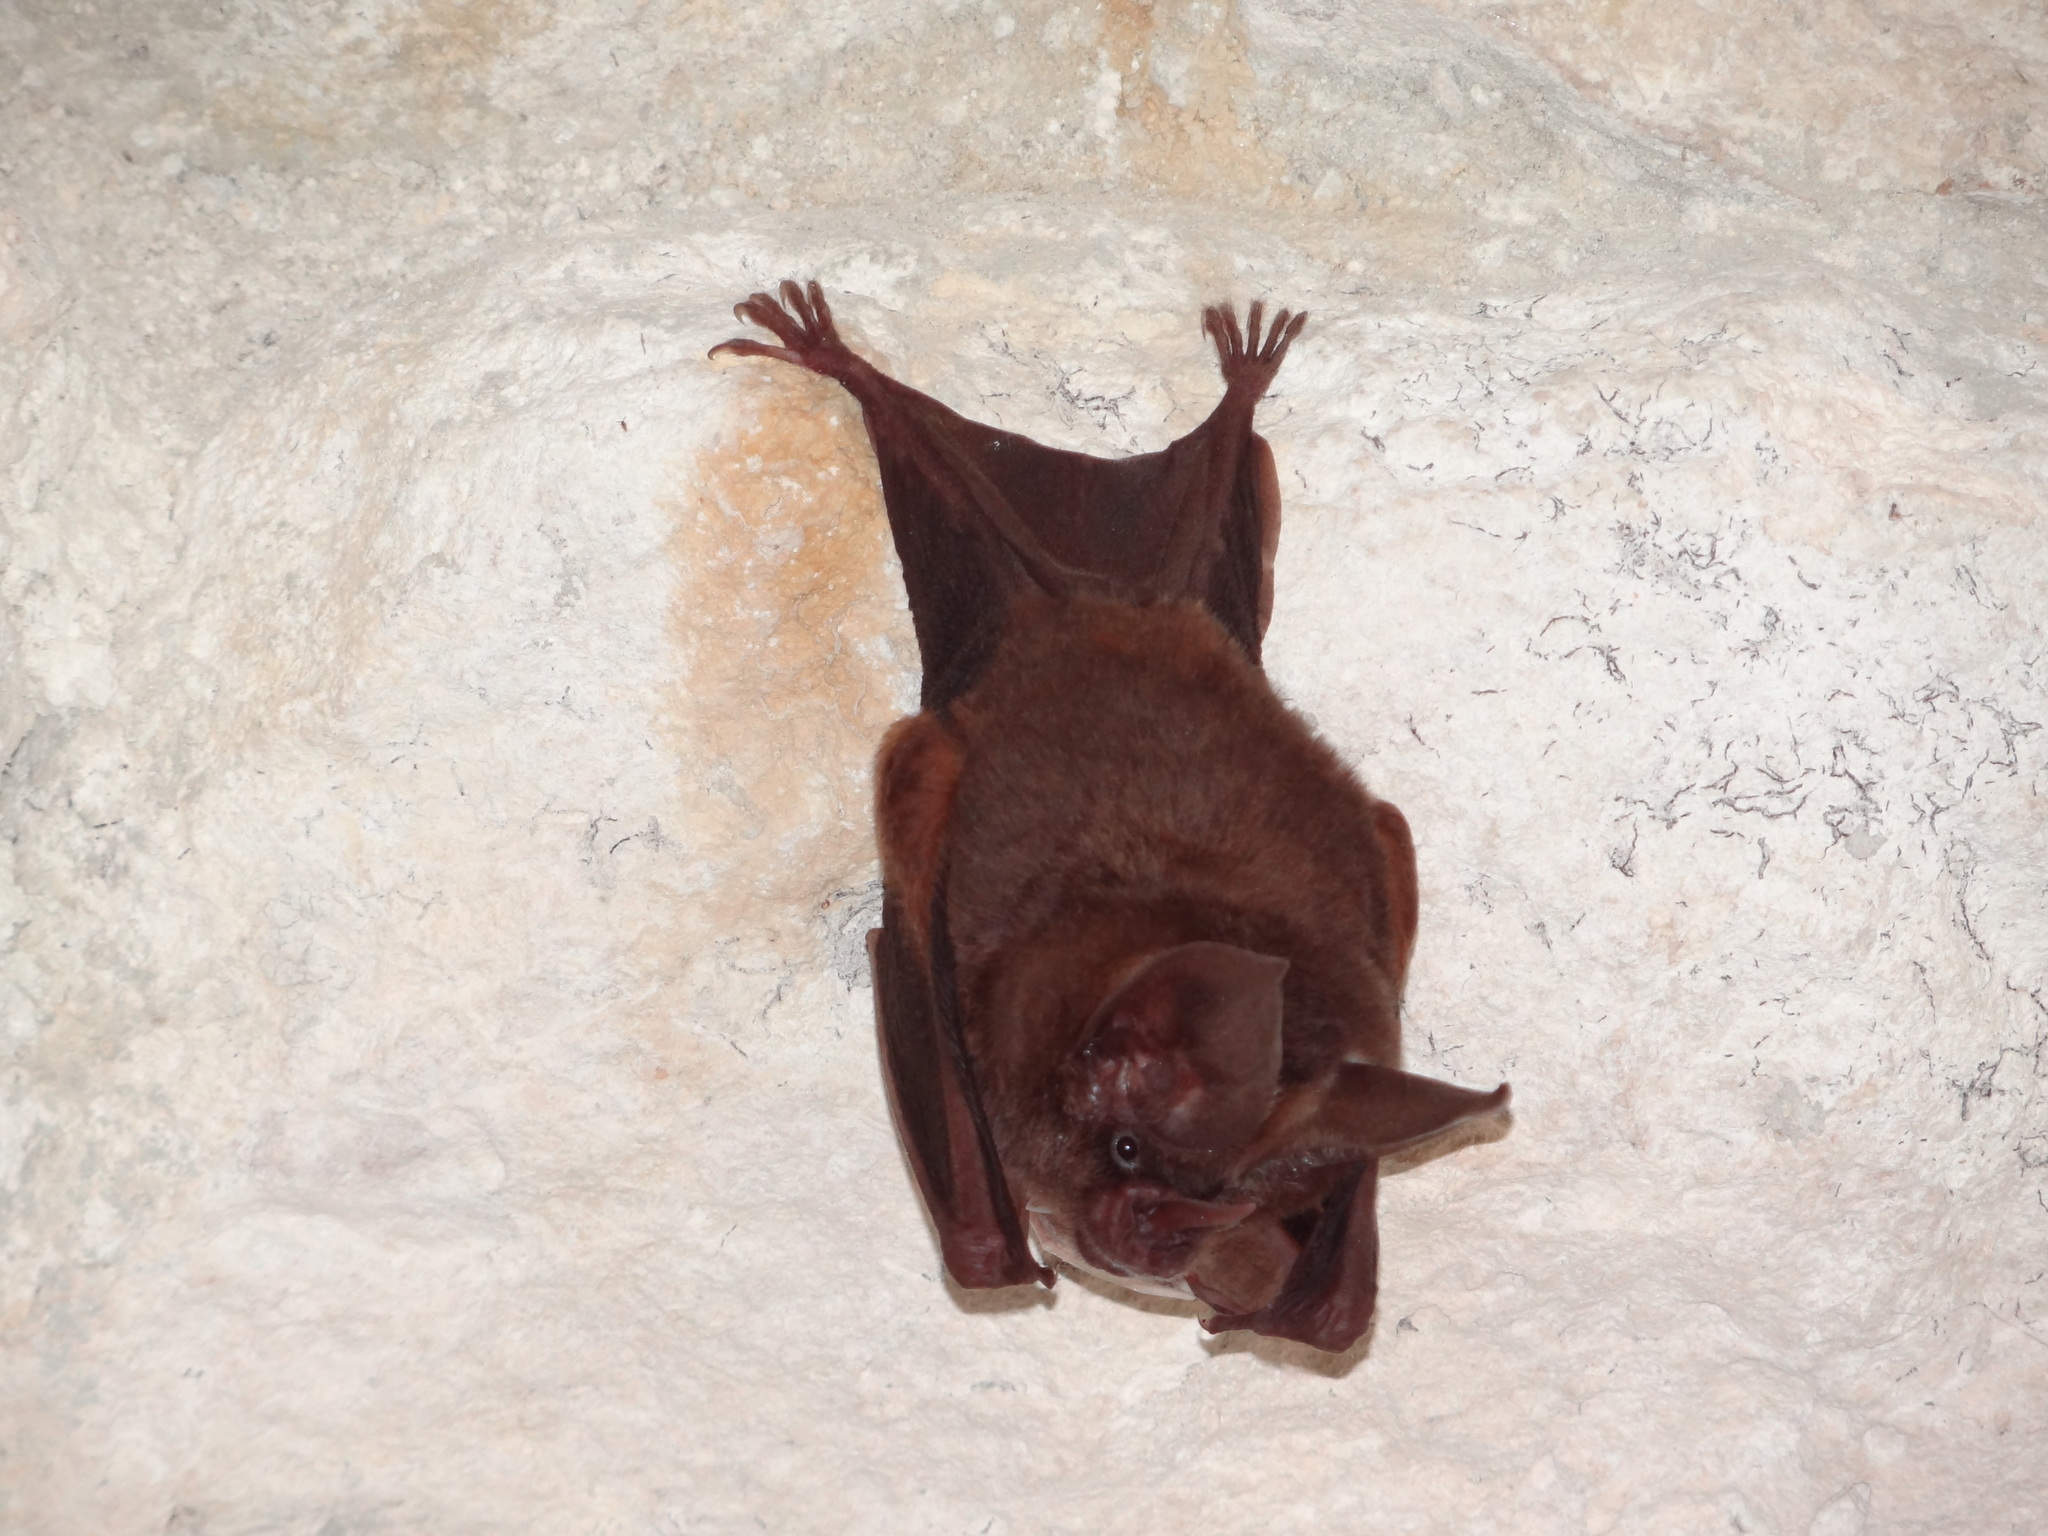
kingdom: Animalia
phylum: Chordata
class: Mammalia
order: Chiroptera
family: Phyllostomidae
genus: Mimon
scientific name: Mimon cozumelae
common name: Cozumelan golden bat
